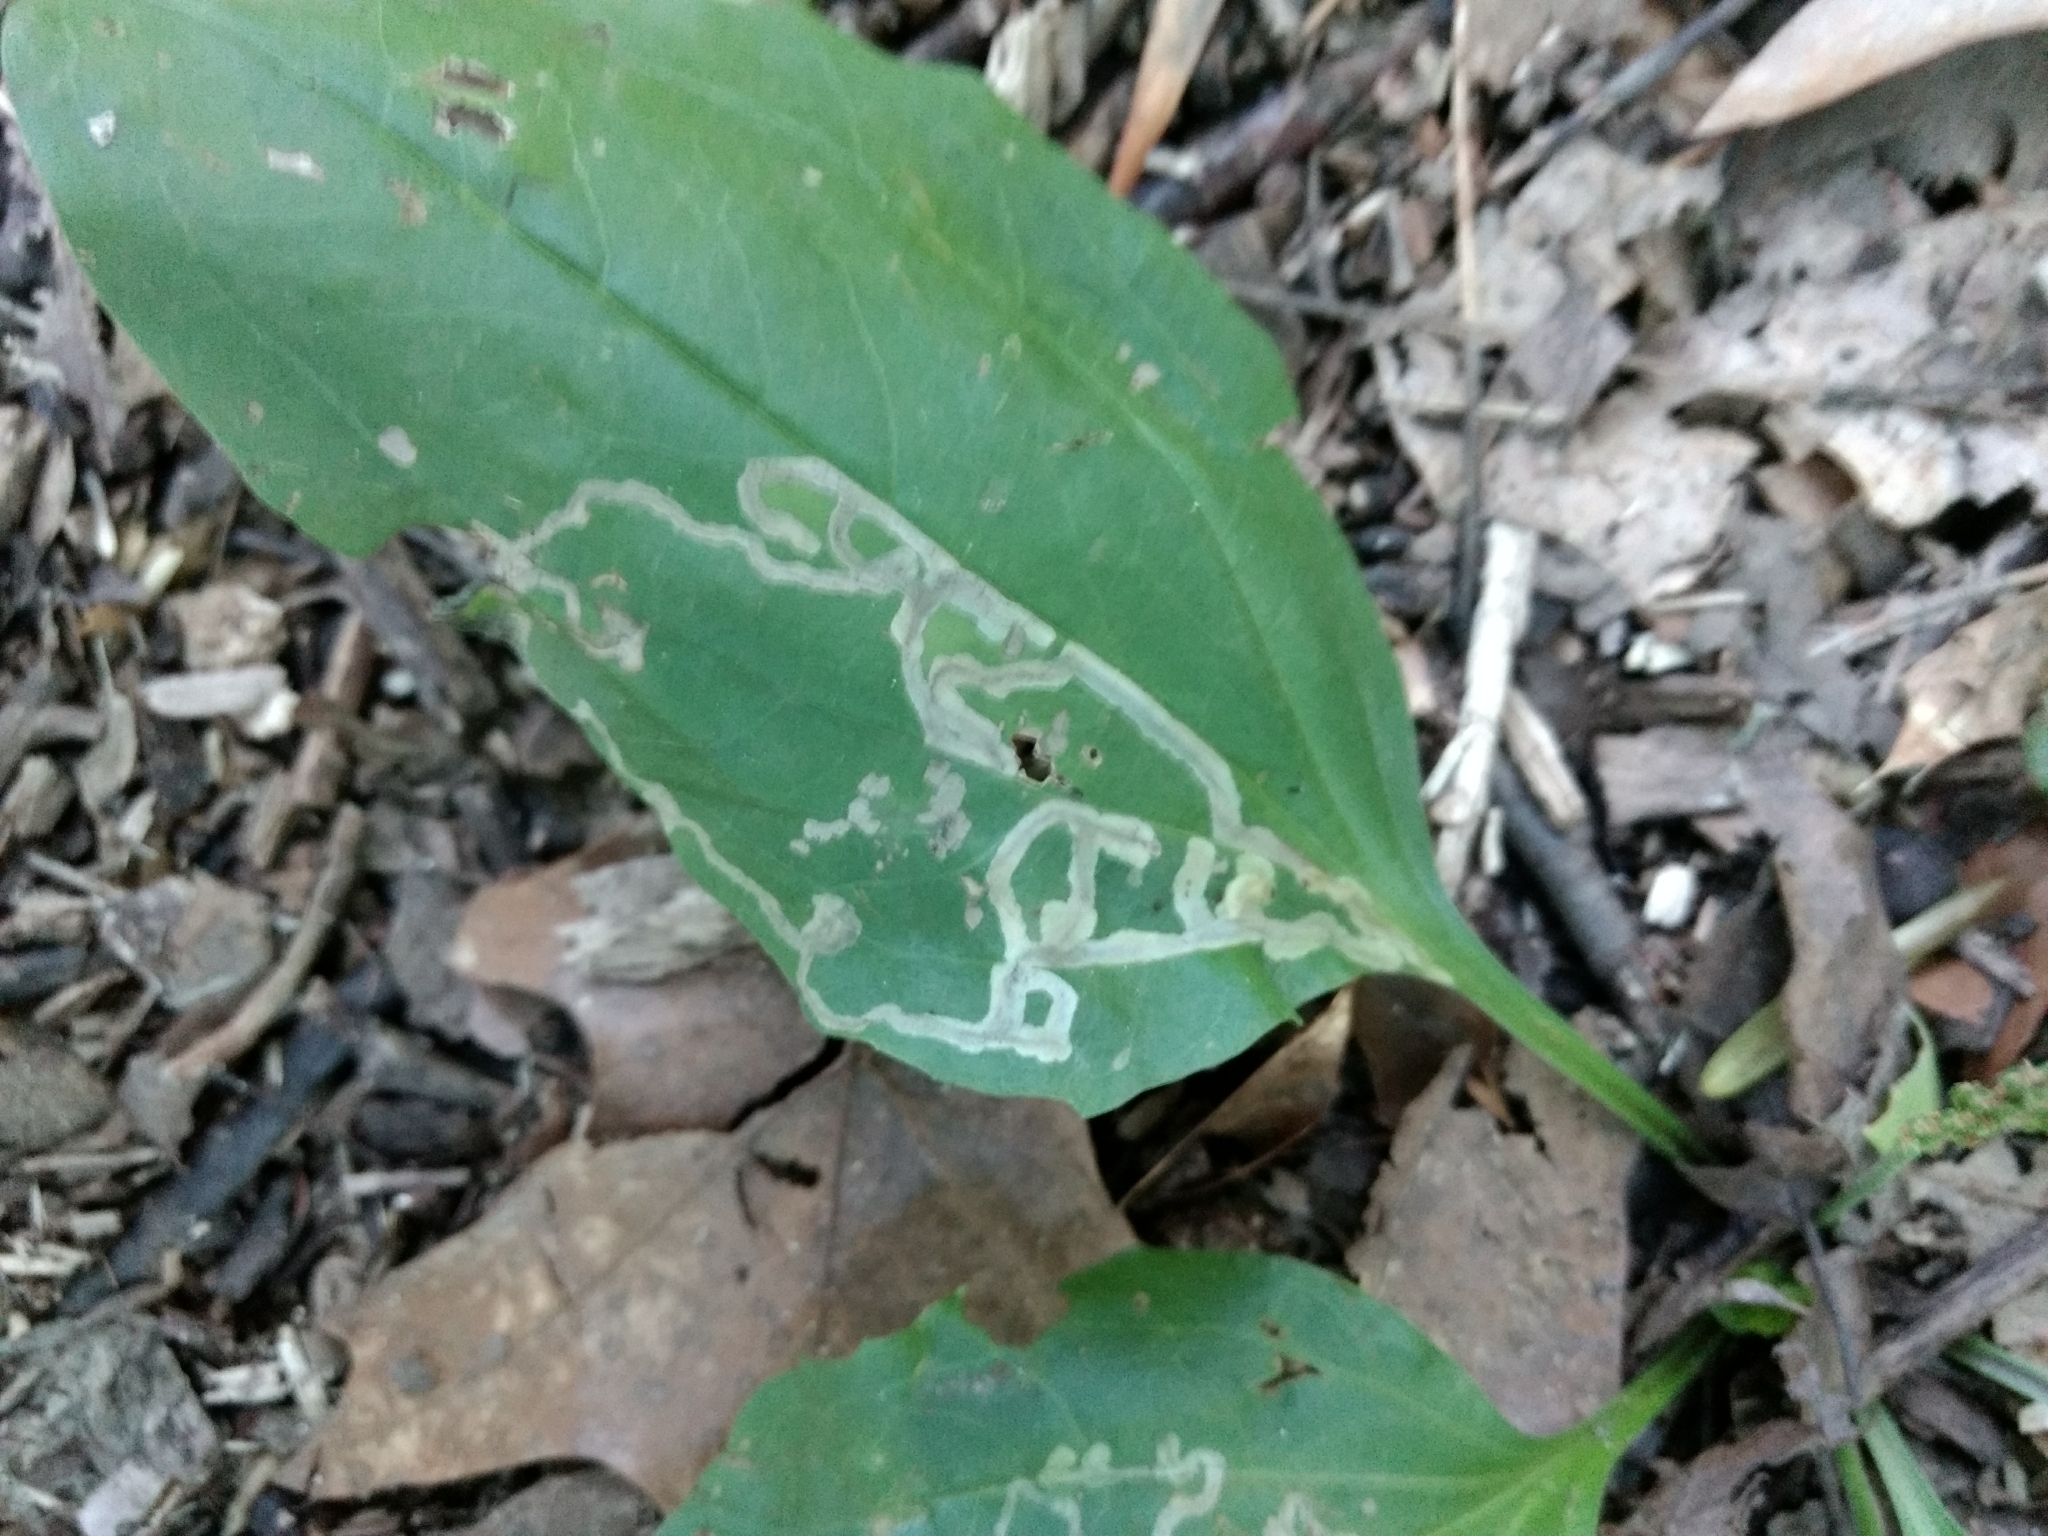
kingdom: Animalia
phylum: Arthropoda
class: Insecta
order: Coleoptera
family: Chrysomelidae
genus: Dibolia
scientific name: Dibolia borealis
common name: Northern plantain flea beetle
